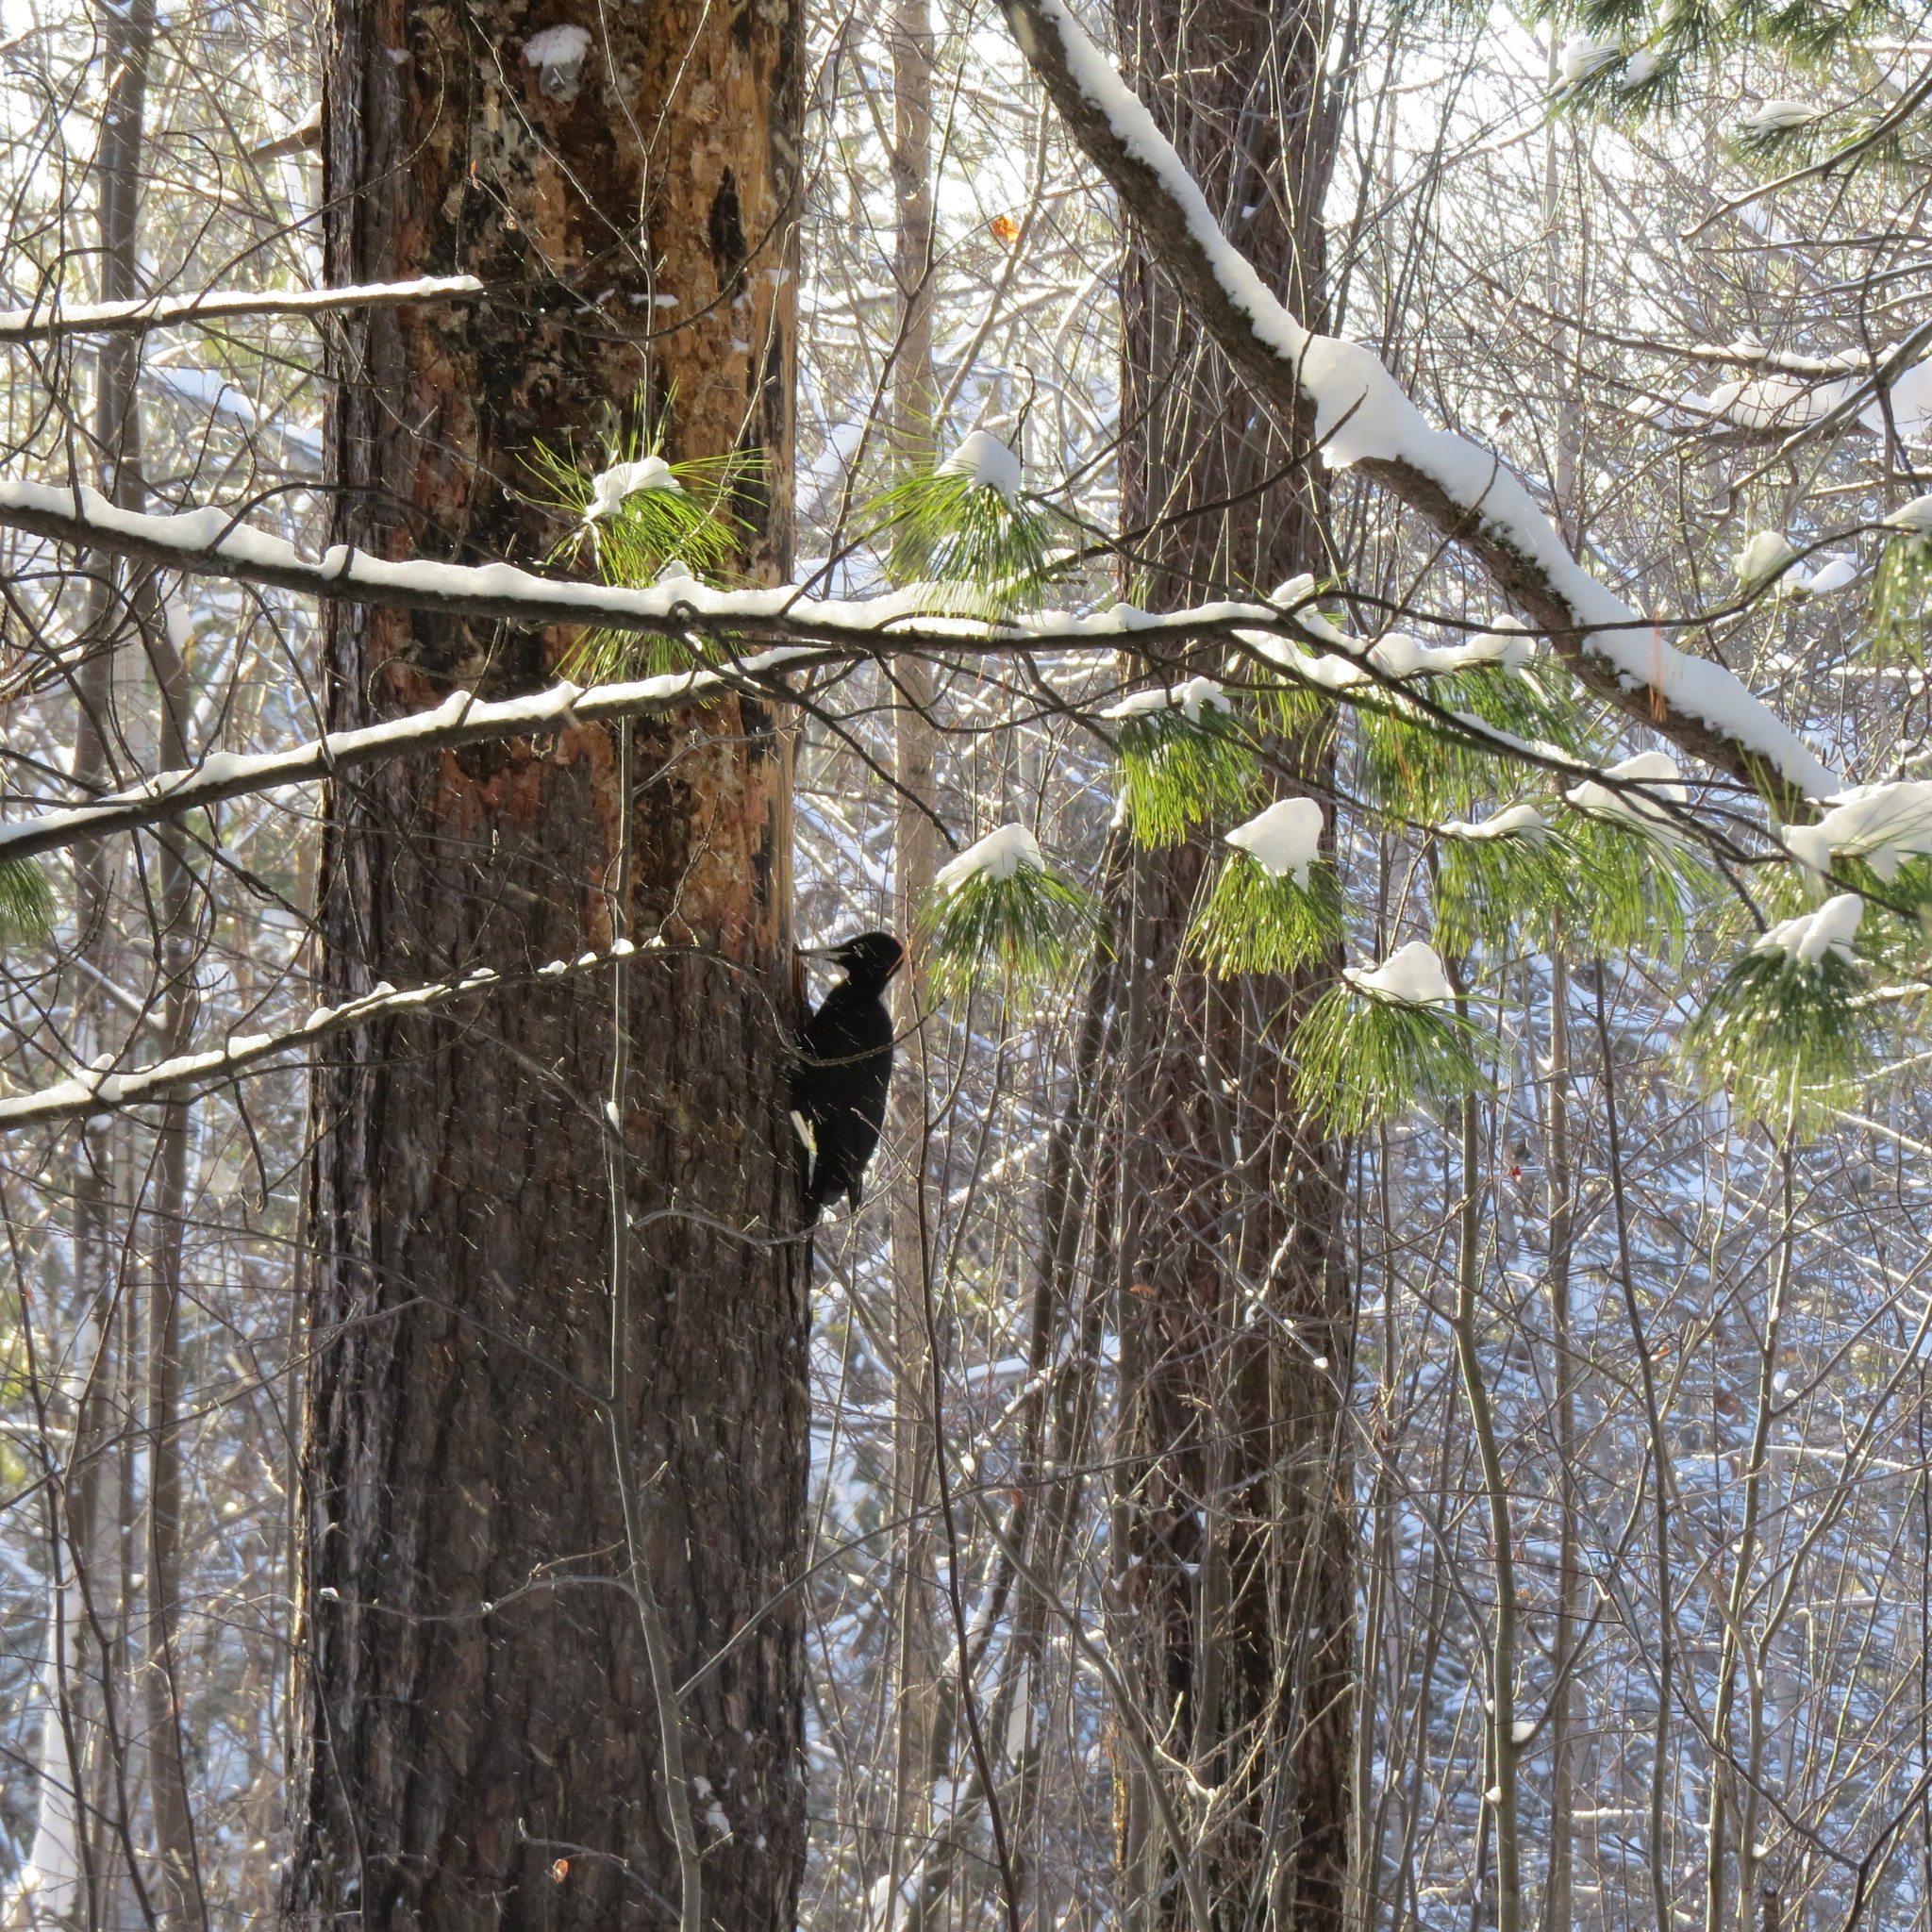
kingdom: Animalia
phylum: Chordata
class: Aves
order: Piciformes
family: Picidae
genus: Dryocopus
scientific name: Dryocopus martius
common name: Black woodpecker
